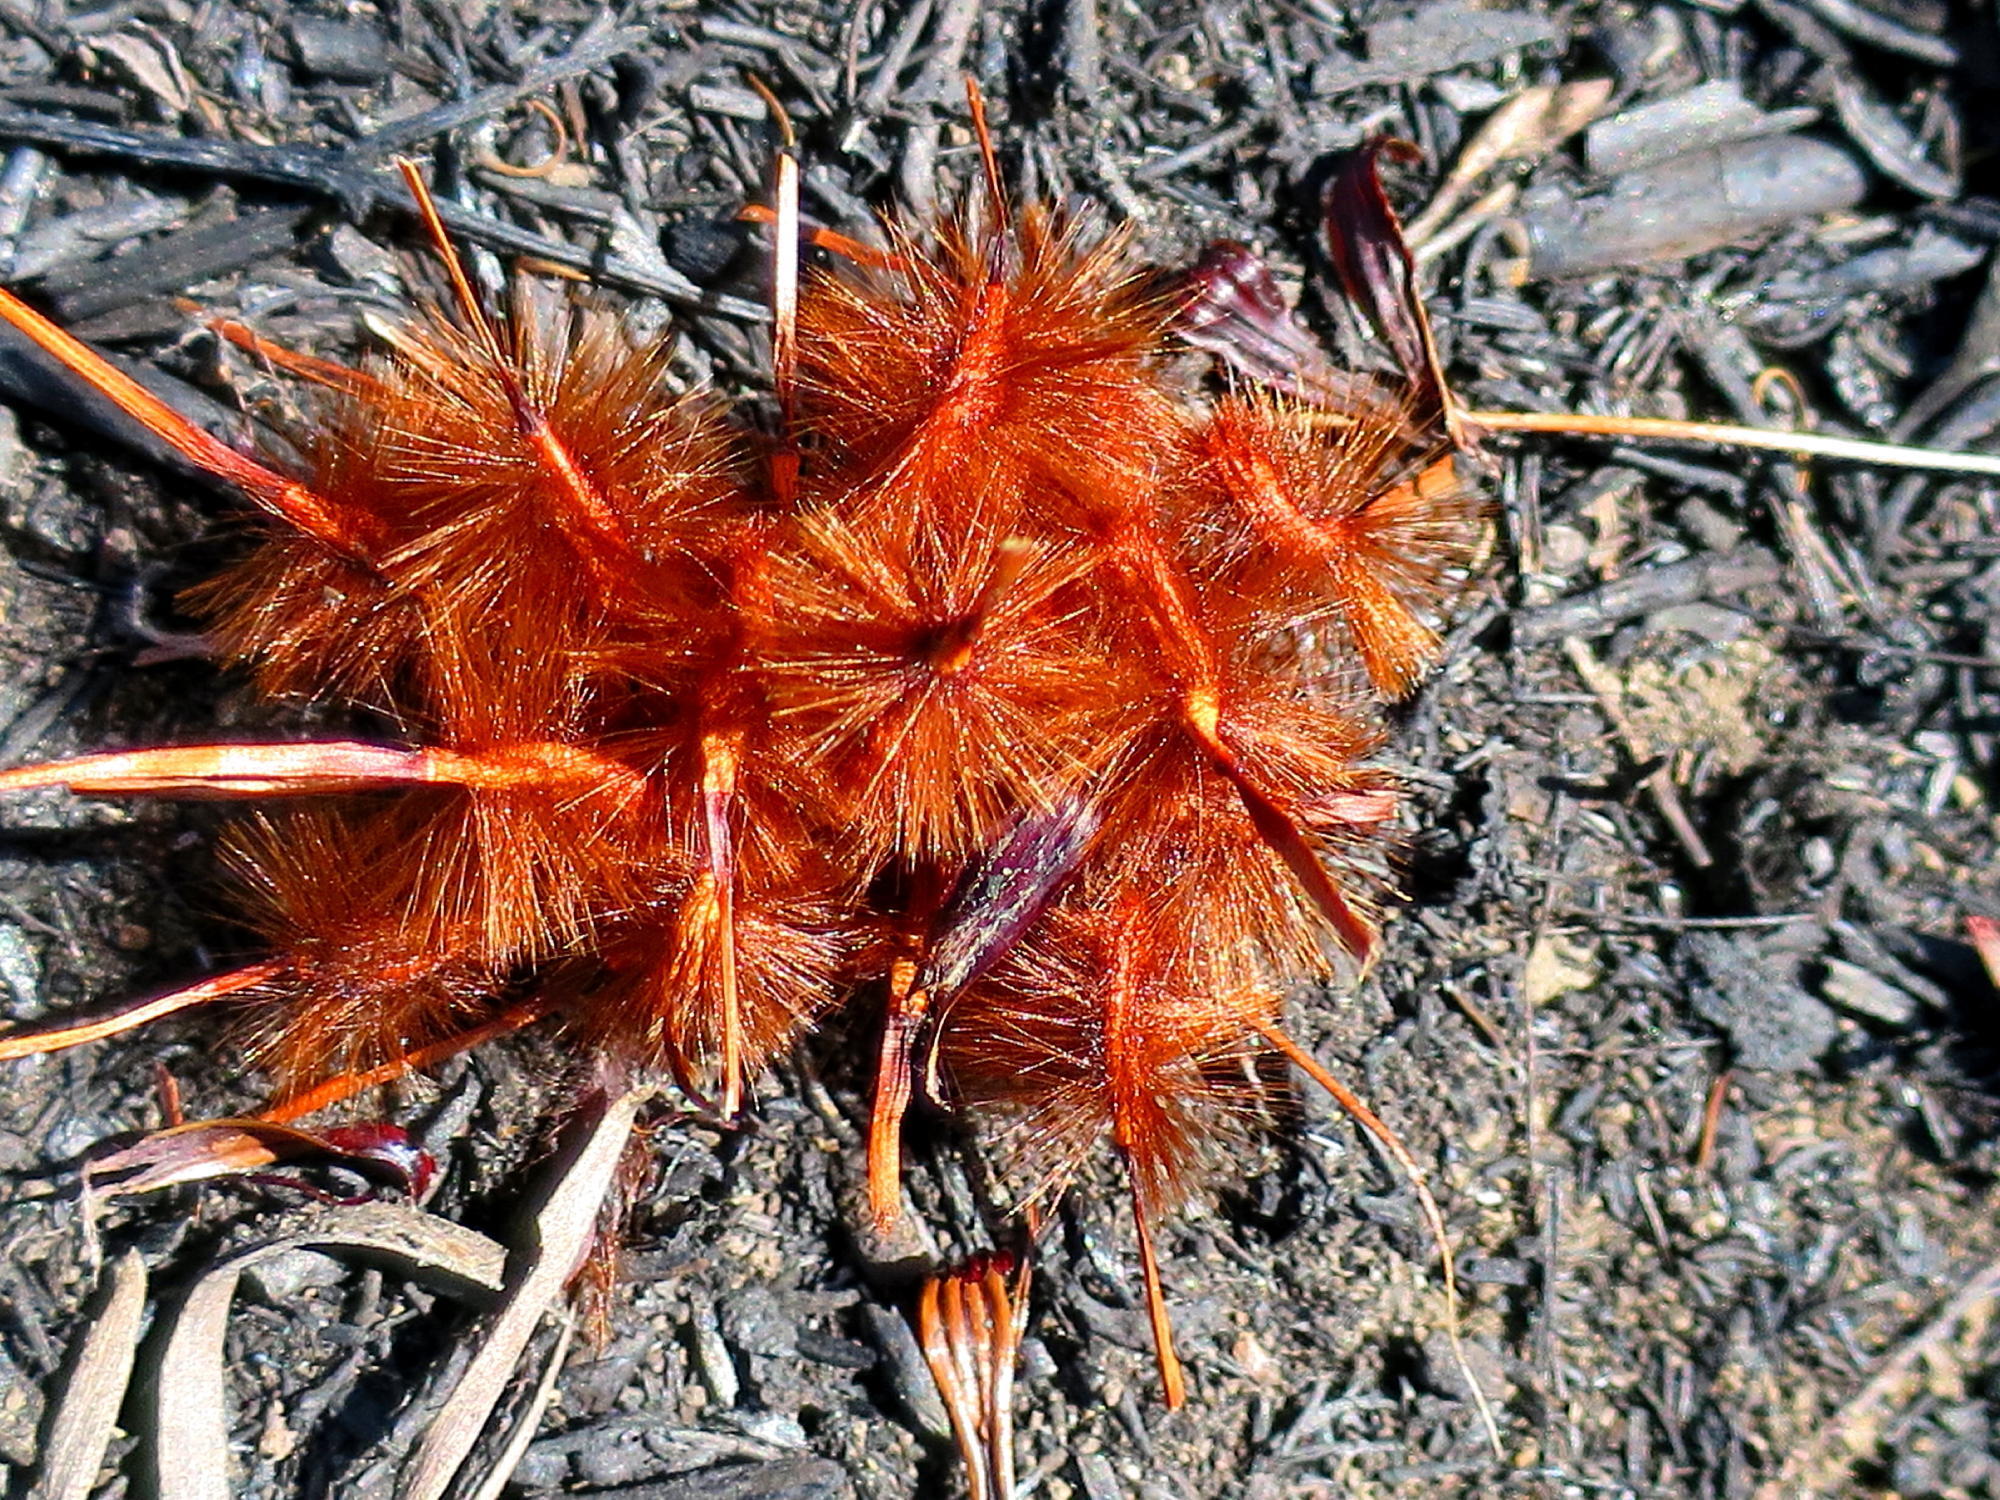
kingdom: Plantae
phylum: Tracheophyta
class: Magnoliopsida
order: Proteales
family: Proteaceae
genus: Protea
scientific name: Protea neriifolia
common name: Blue sugarbush
